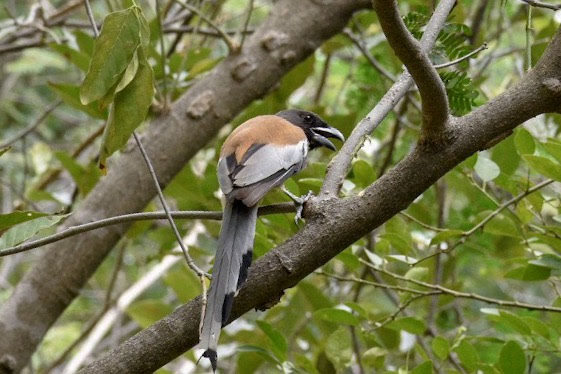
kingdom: Animalia
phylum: Chordata
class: Aves
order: Passeriformes
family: Corvidae
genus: Dendrocitta
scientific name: Dendrocitta vagabunda
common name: Rufous treepie
